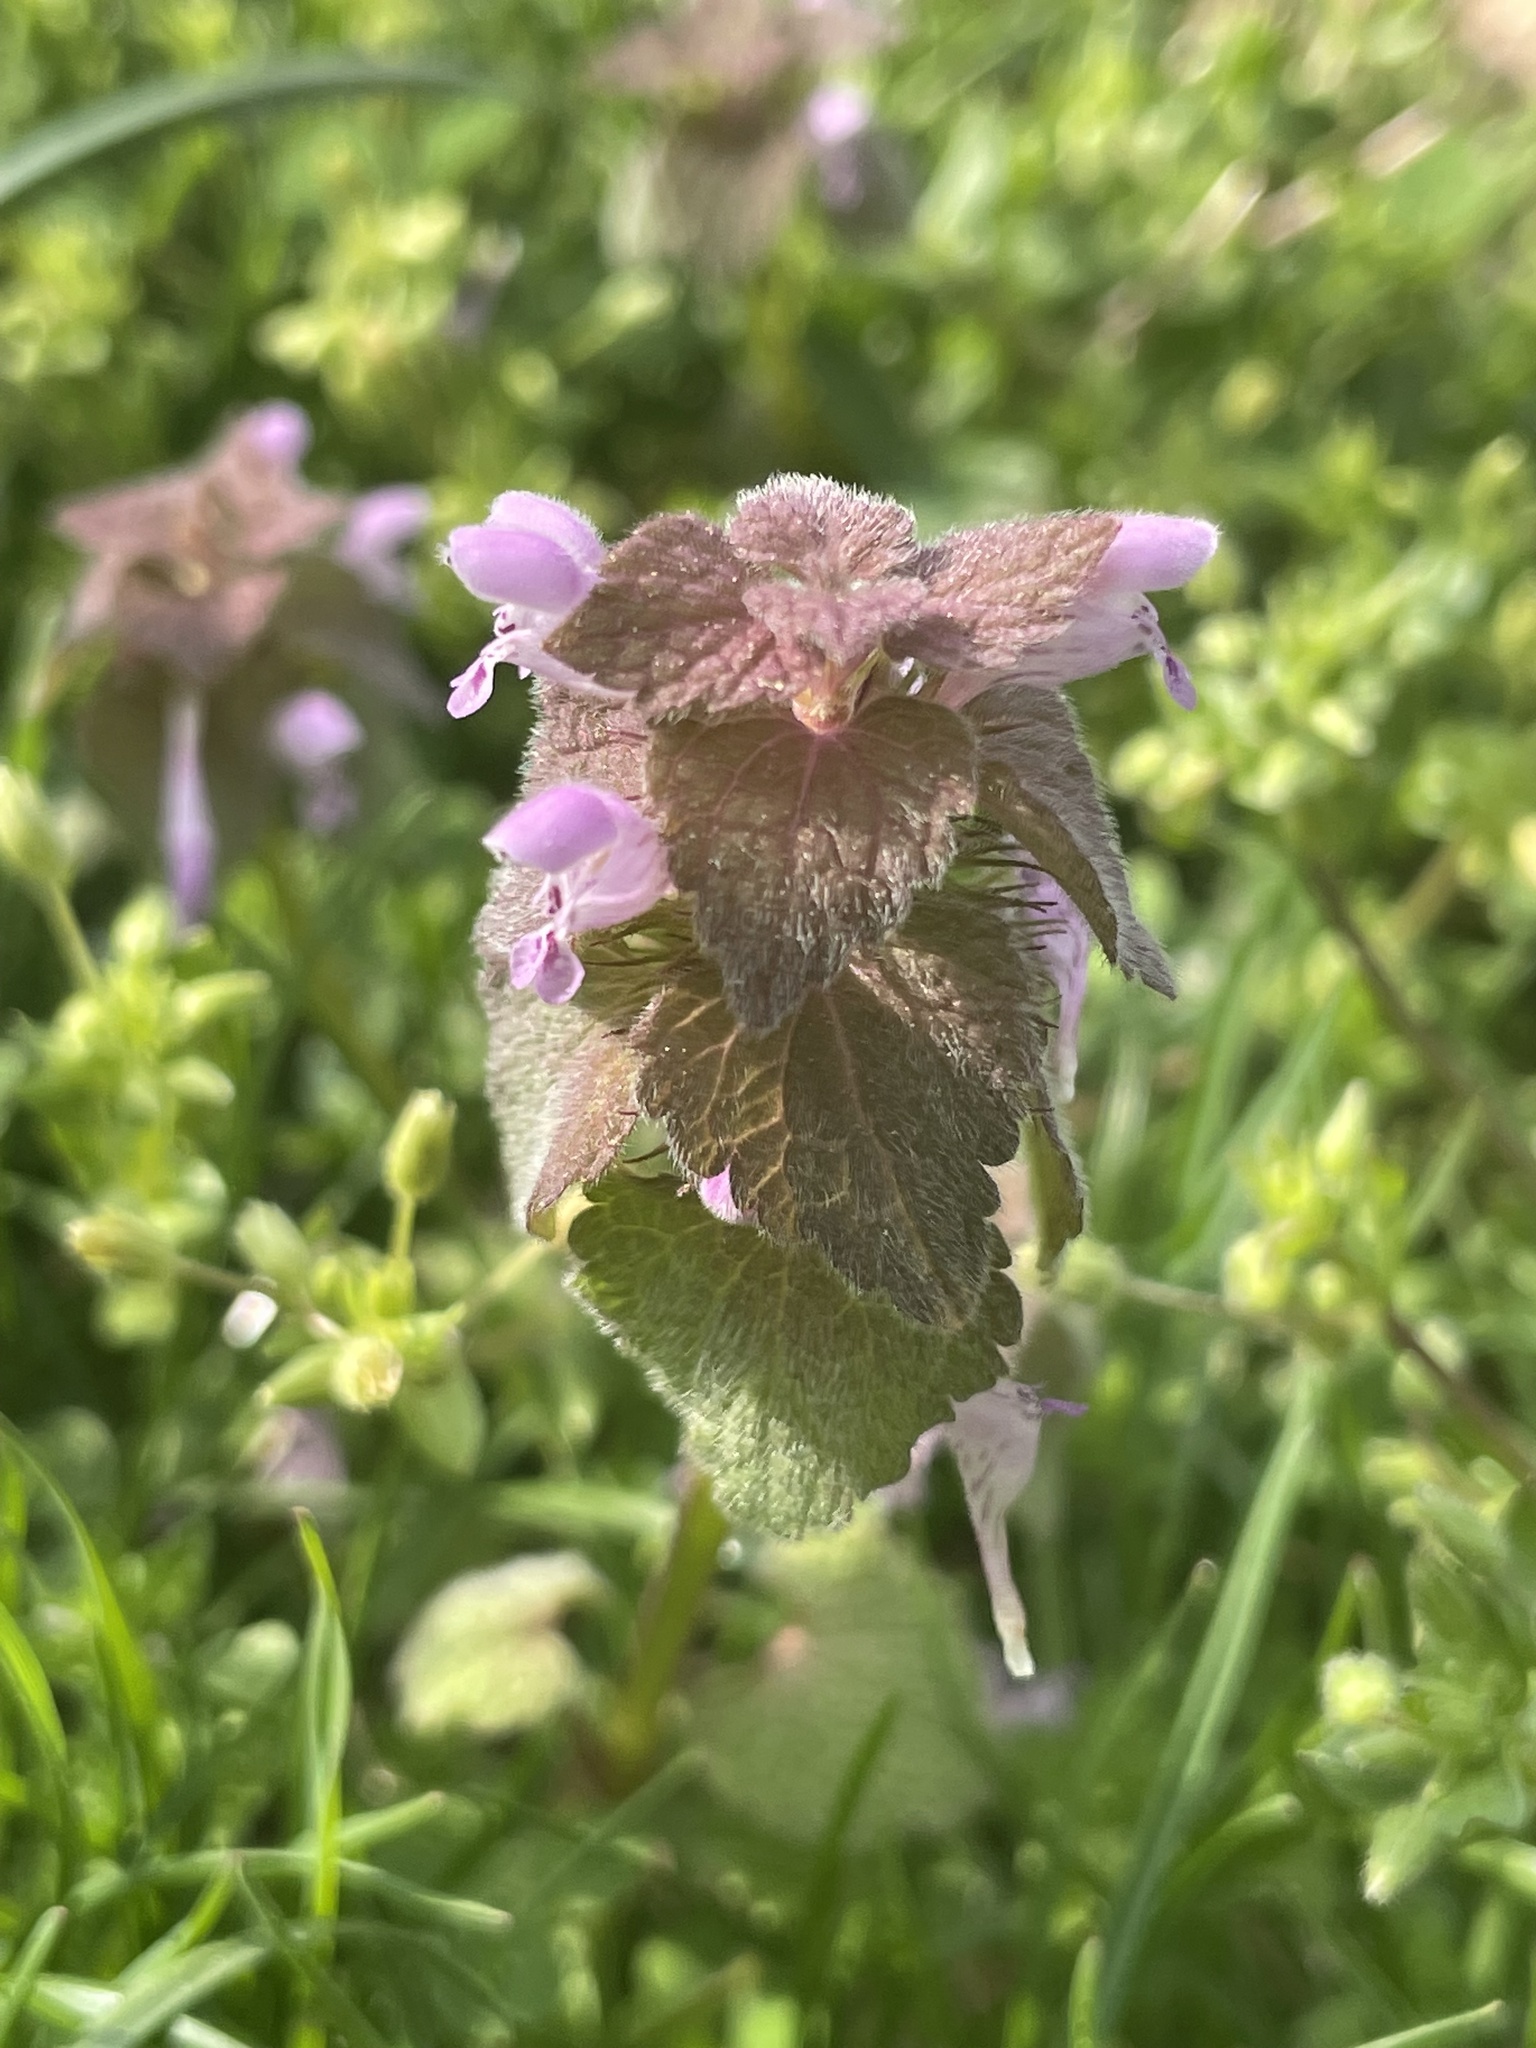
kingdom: Plantae
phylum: Tracheophyta
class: Magnoliopsida
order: Lamiales
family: Lamiaceae
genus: Lamium
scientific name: Lamium purpureum
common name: Red dead-nettle
